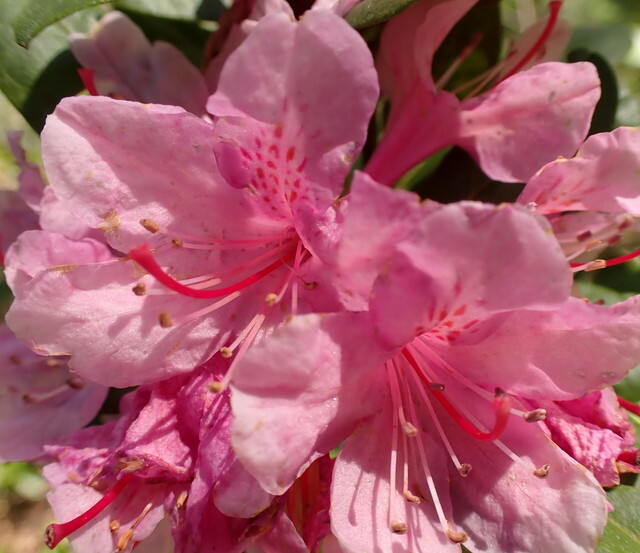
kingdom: Plantae
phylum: Tracheophyta
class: Magnoliopsida
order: Ericales
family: Ericaceae
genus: Rhododendron
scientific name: Rhododendron minus
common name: Piedmont rhododendron
